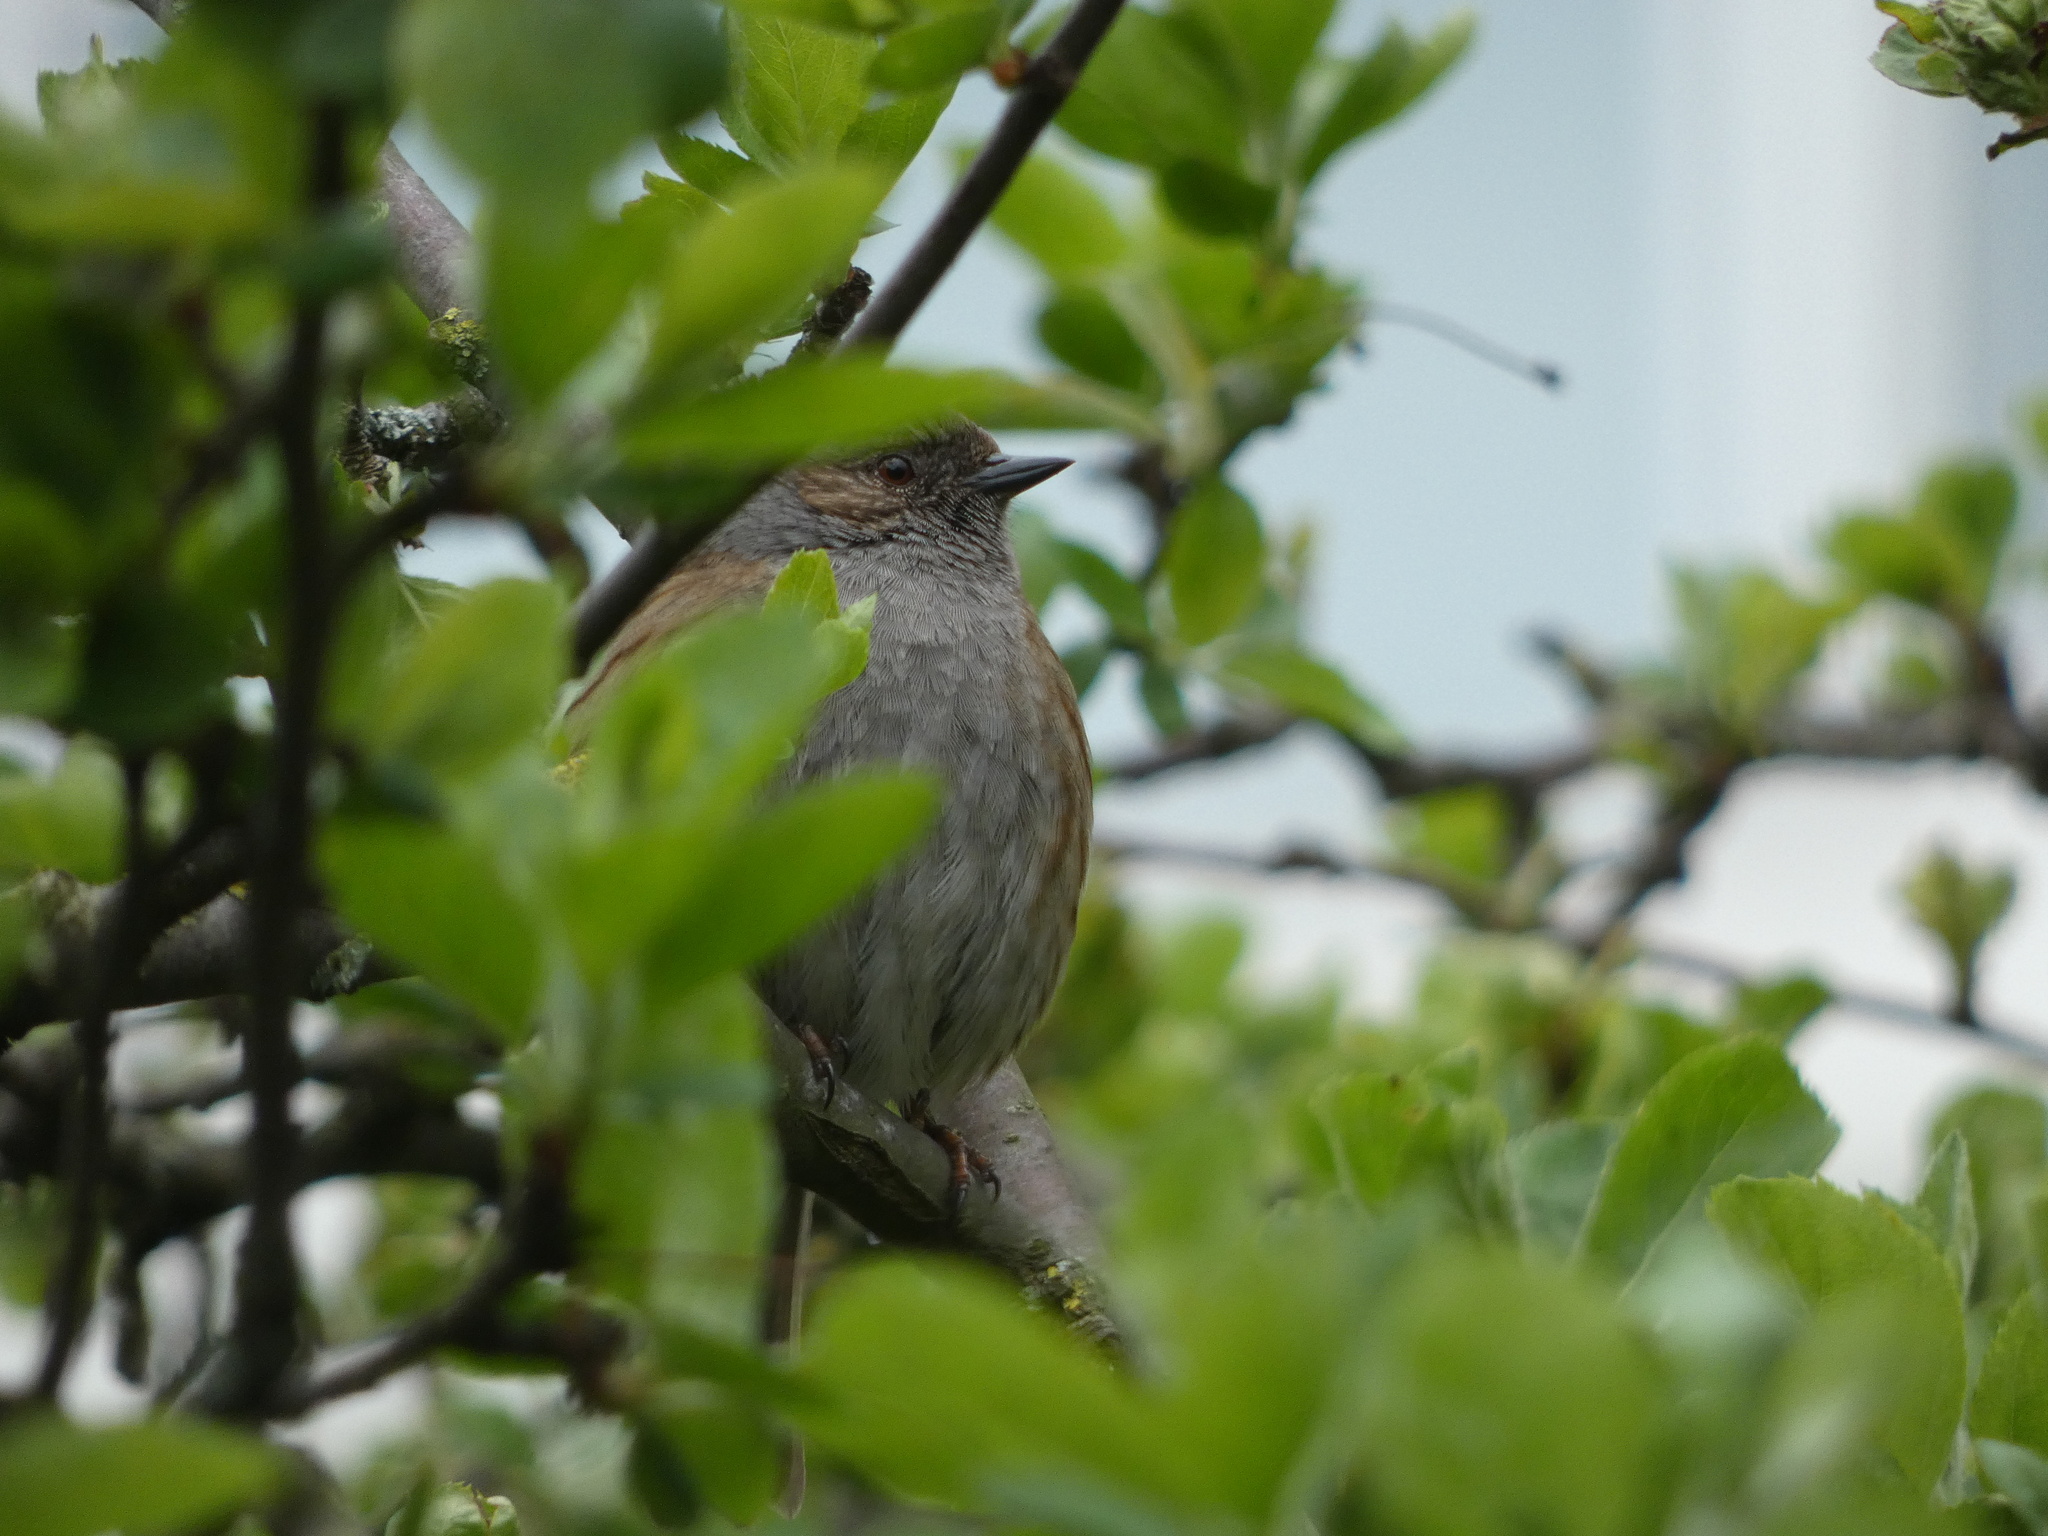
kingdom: Animalia
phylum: Chordata
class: Aves
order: Passeriformes
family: Prunellidae
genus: Prunella
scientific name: Prunella modularis
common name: Dunnock
